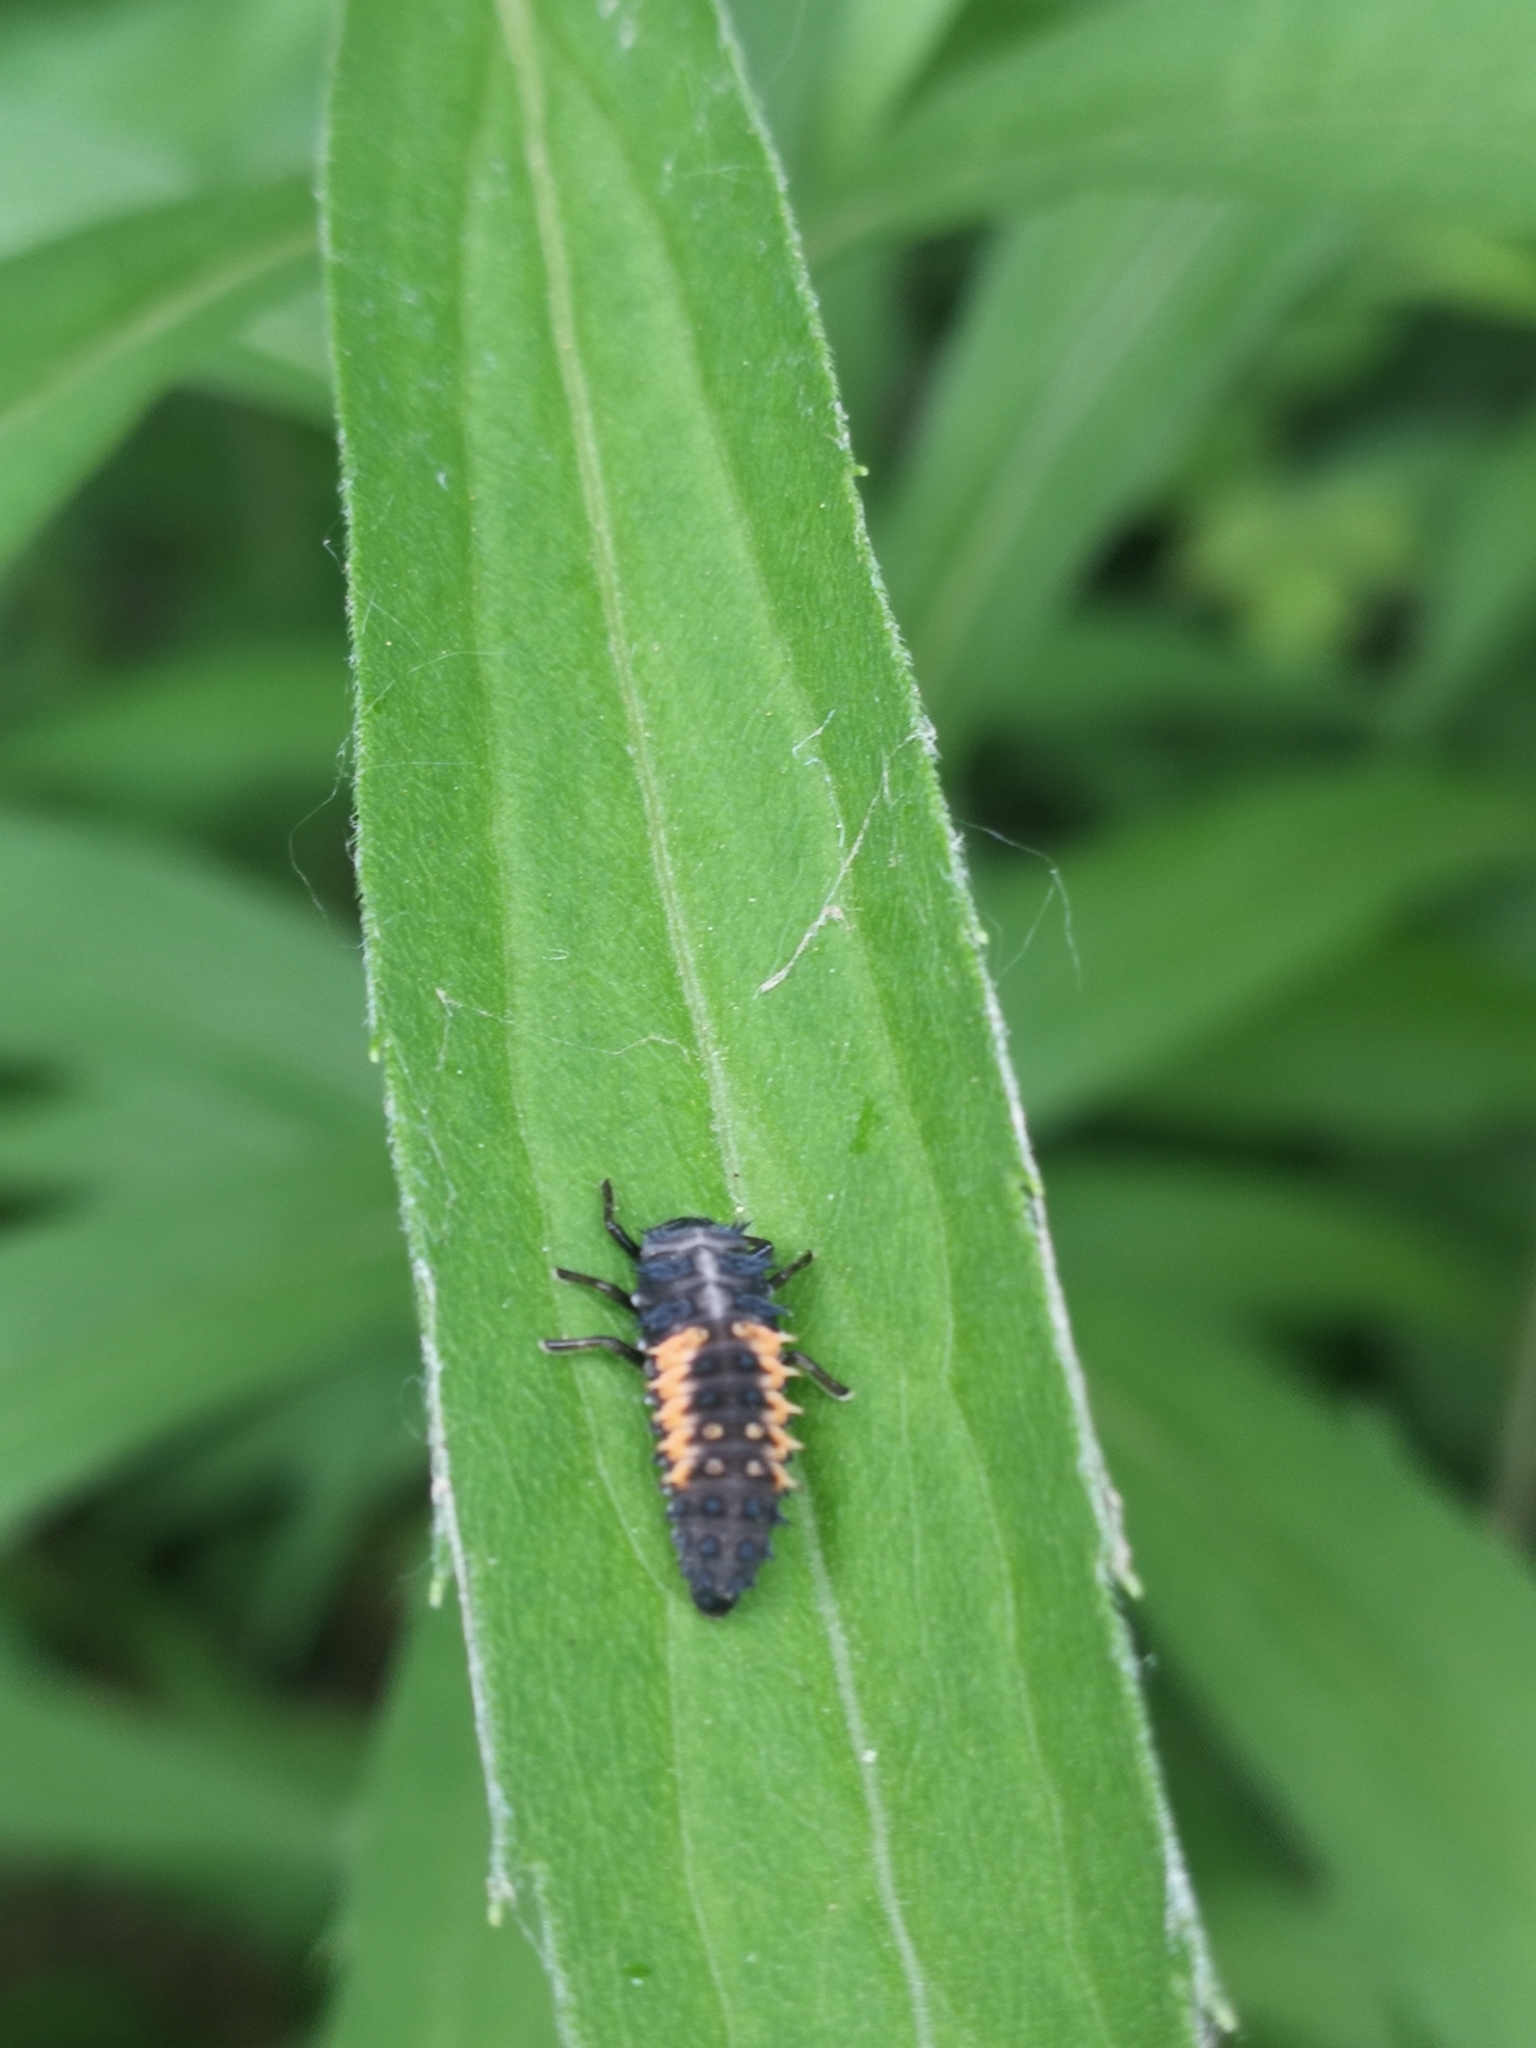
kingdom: Animalia
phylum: Arthropoda
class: Insecta
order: Coleoptera
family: Coccinellidae
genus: Harmonia
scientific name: Harmonia axyridis
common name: Harlequin ladybird
